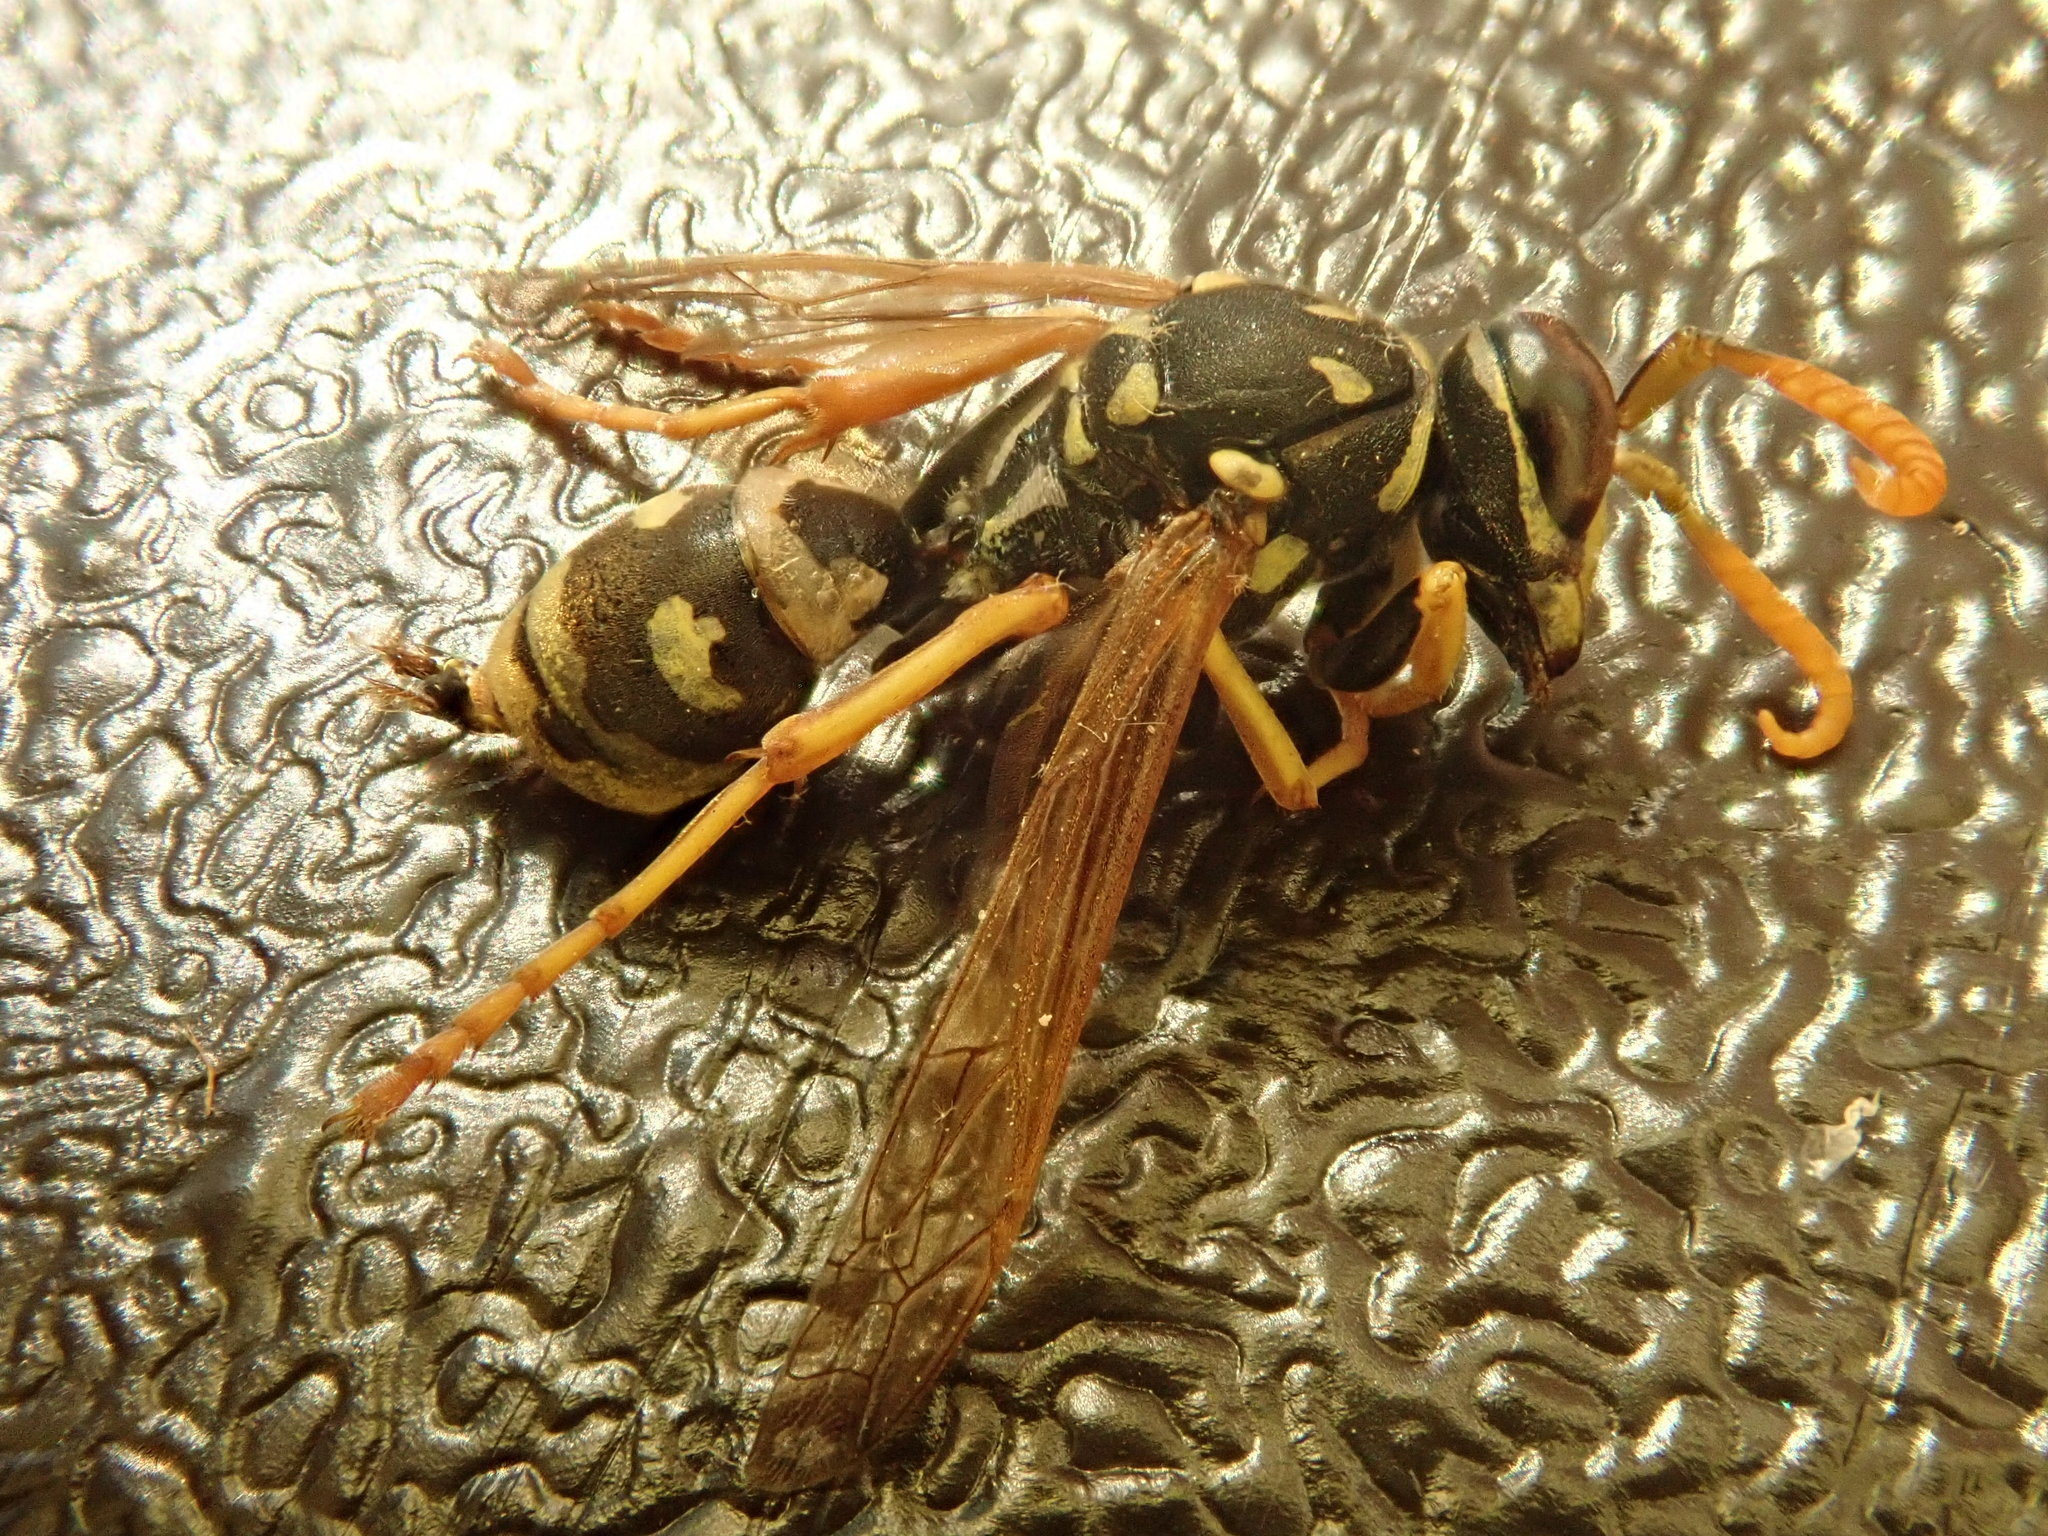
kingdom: Animalia
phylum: Arthropoda
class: Insecta
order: Hymenoptera
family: Eumenidae
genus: Polistes
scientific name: Polistes dominula
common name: Paper wasp
